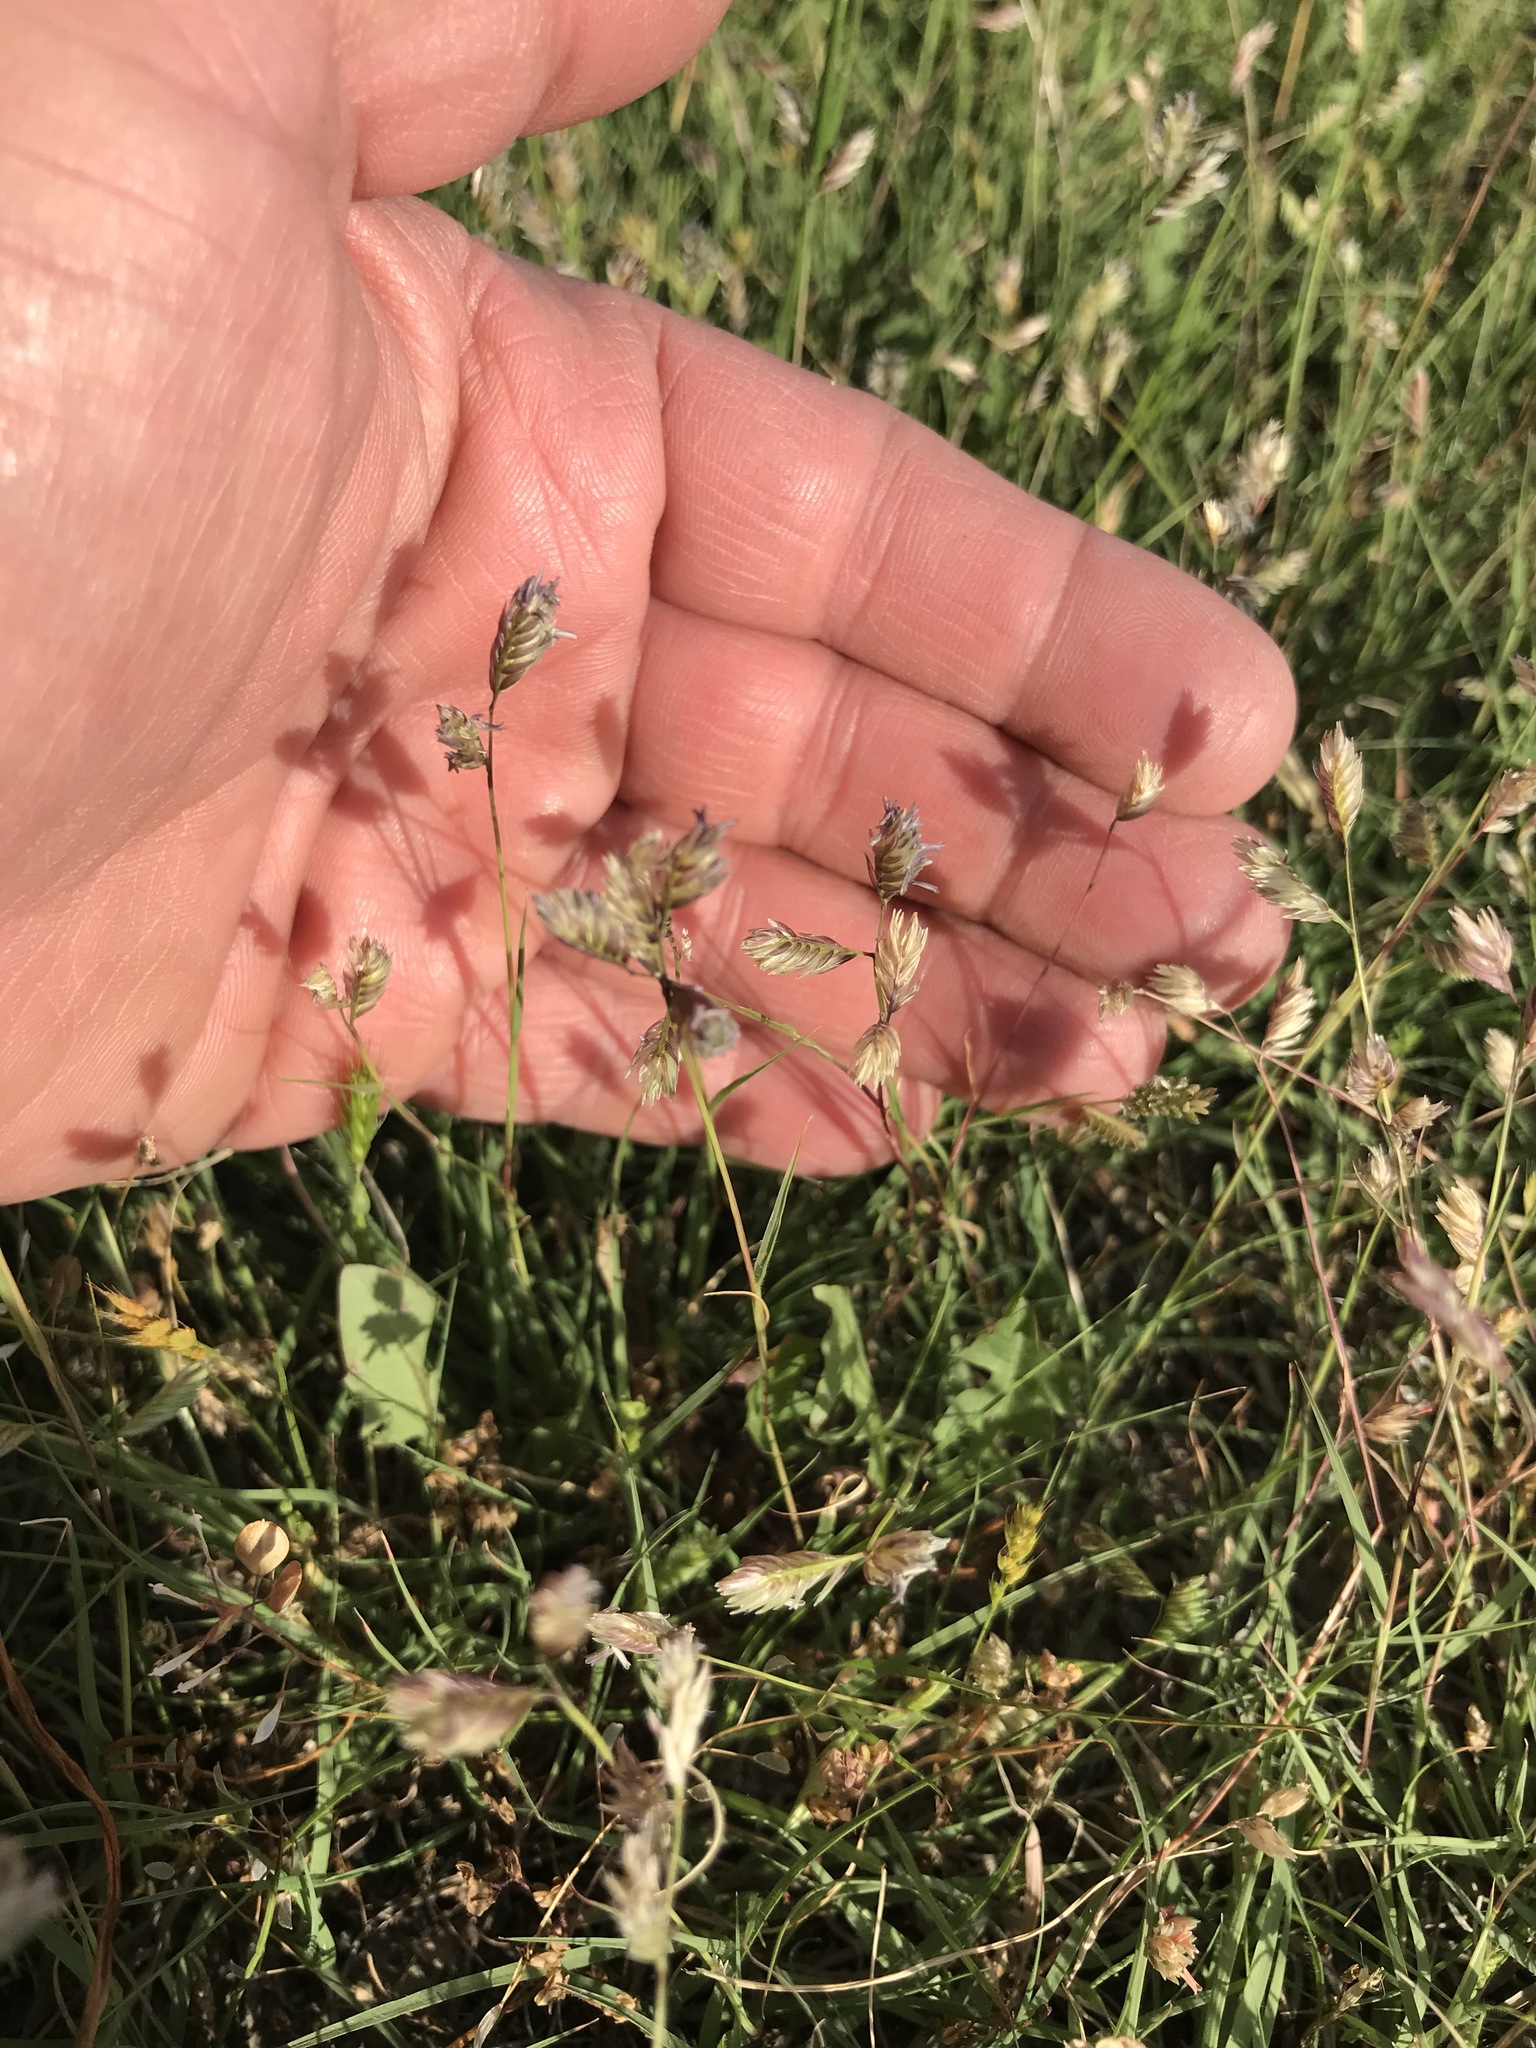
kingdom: Plantae
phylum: Tracheophyta
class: Liliopsida
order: Poales
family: Poaceae
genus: Bouteloua
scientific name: Bouteloua dactyloides
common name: Buffalo grass
